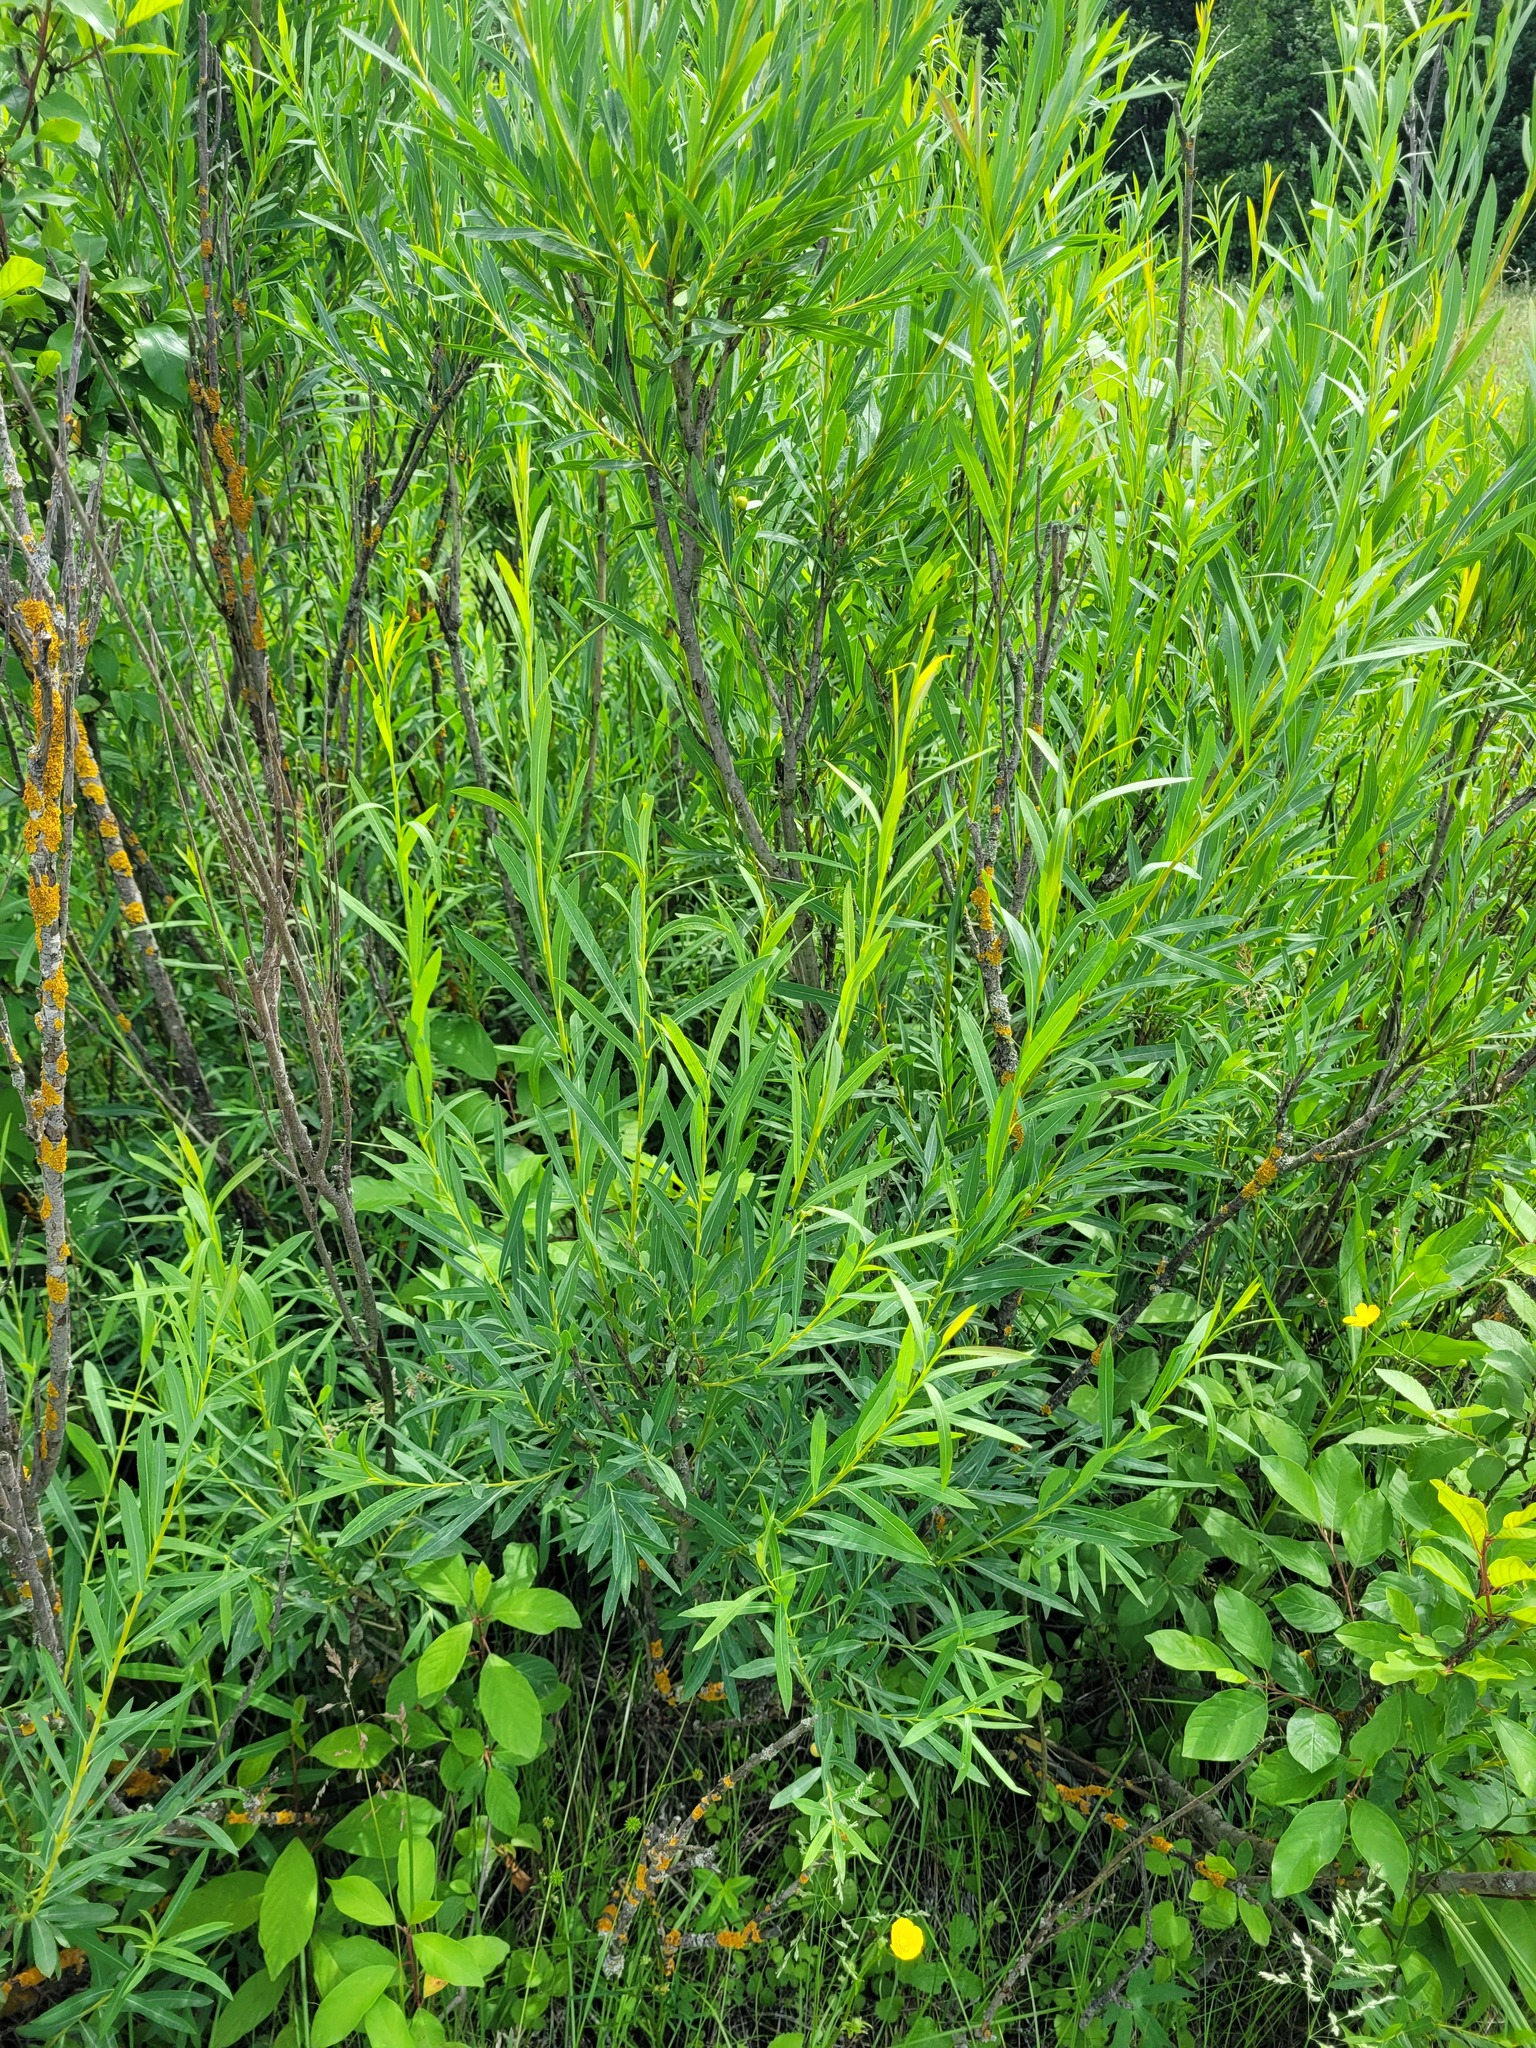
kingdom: Plantae
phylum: Tracheophyta
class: Magnoliopsida
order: Malpighiales
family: Salicaceae
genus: Salix
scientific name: Salix vinogradovii
